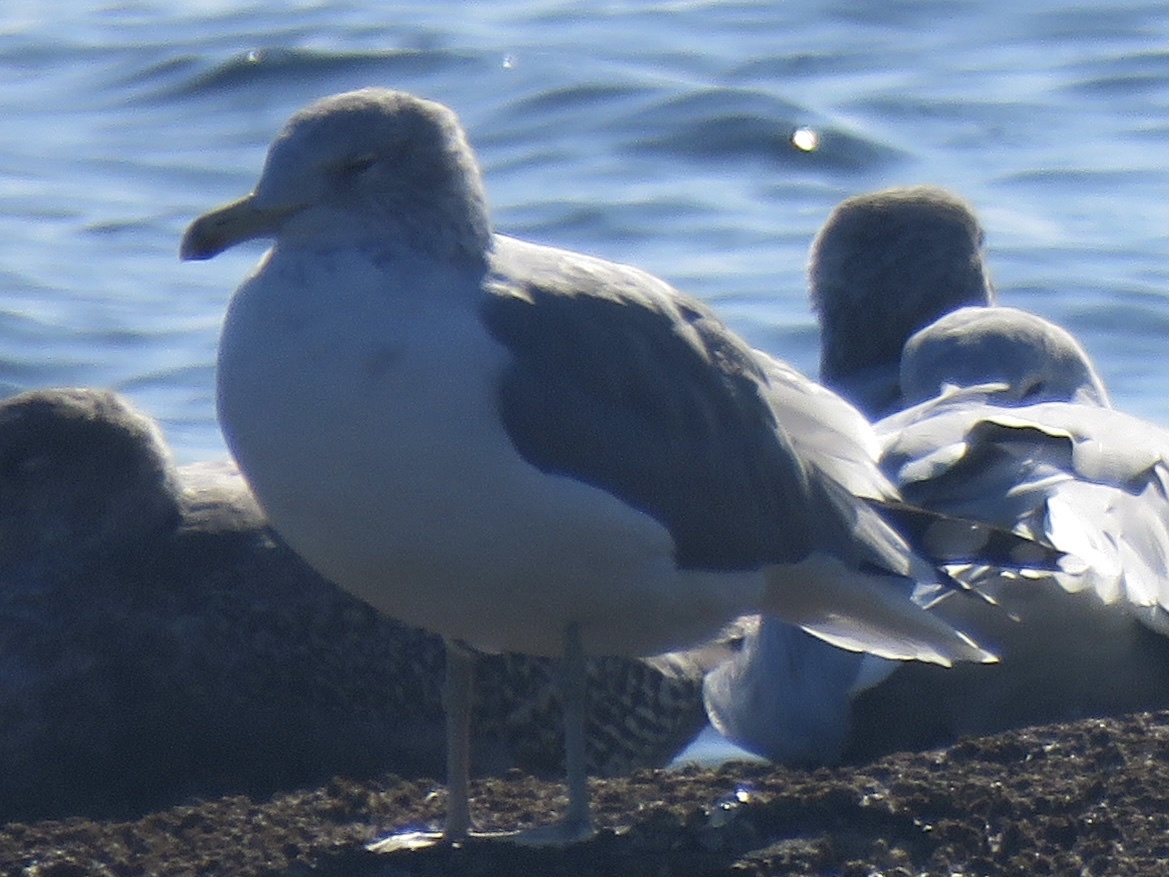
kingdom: Animalia
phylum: Chordata
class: Aves
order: Charadriiformes
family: Laridae
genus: Larus
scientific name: Larus californicus
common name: California gull
